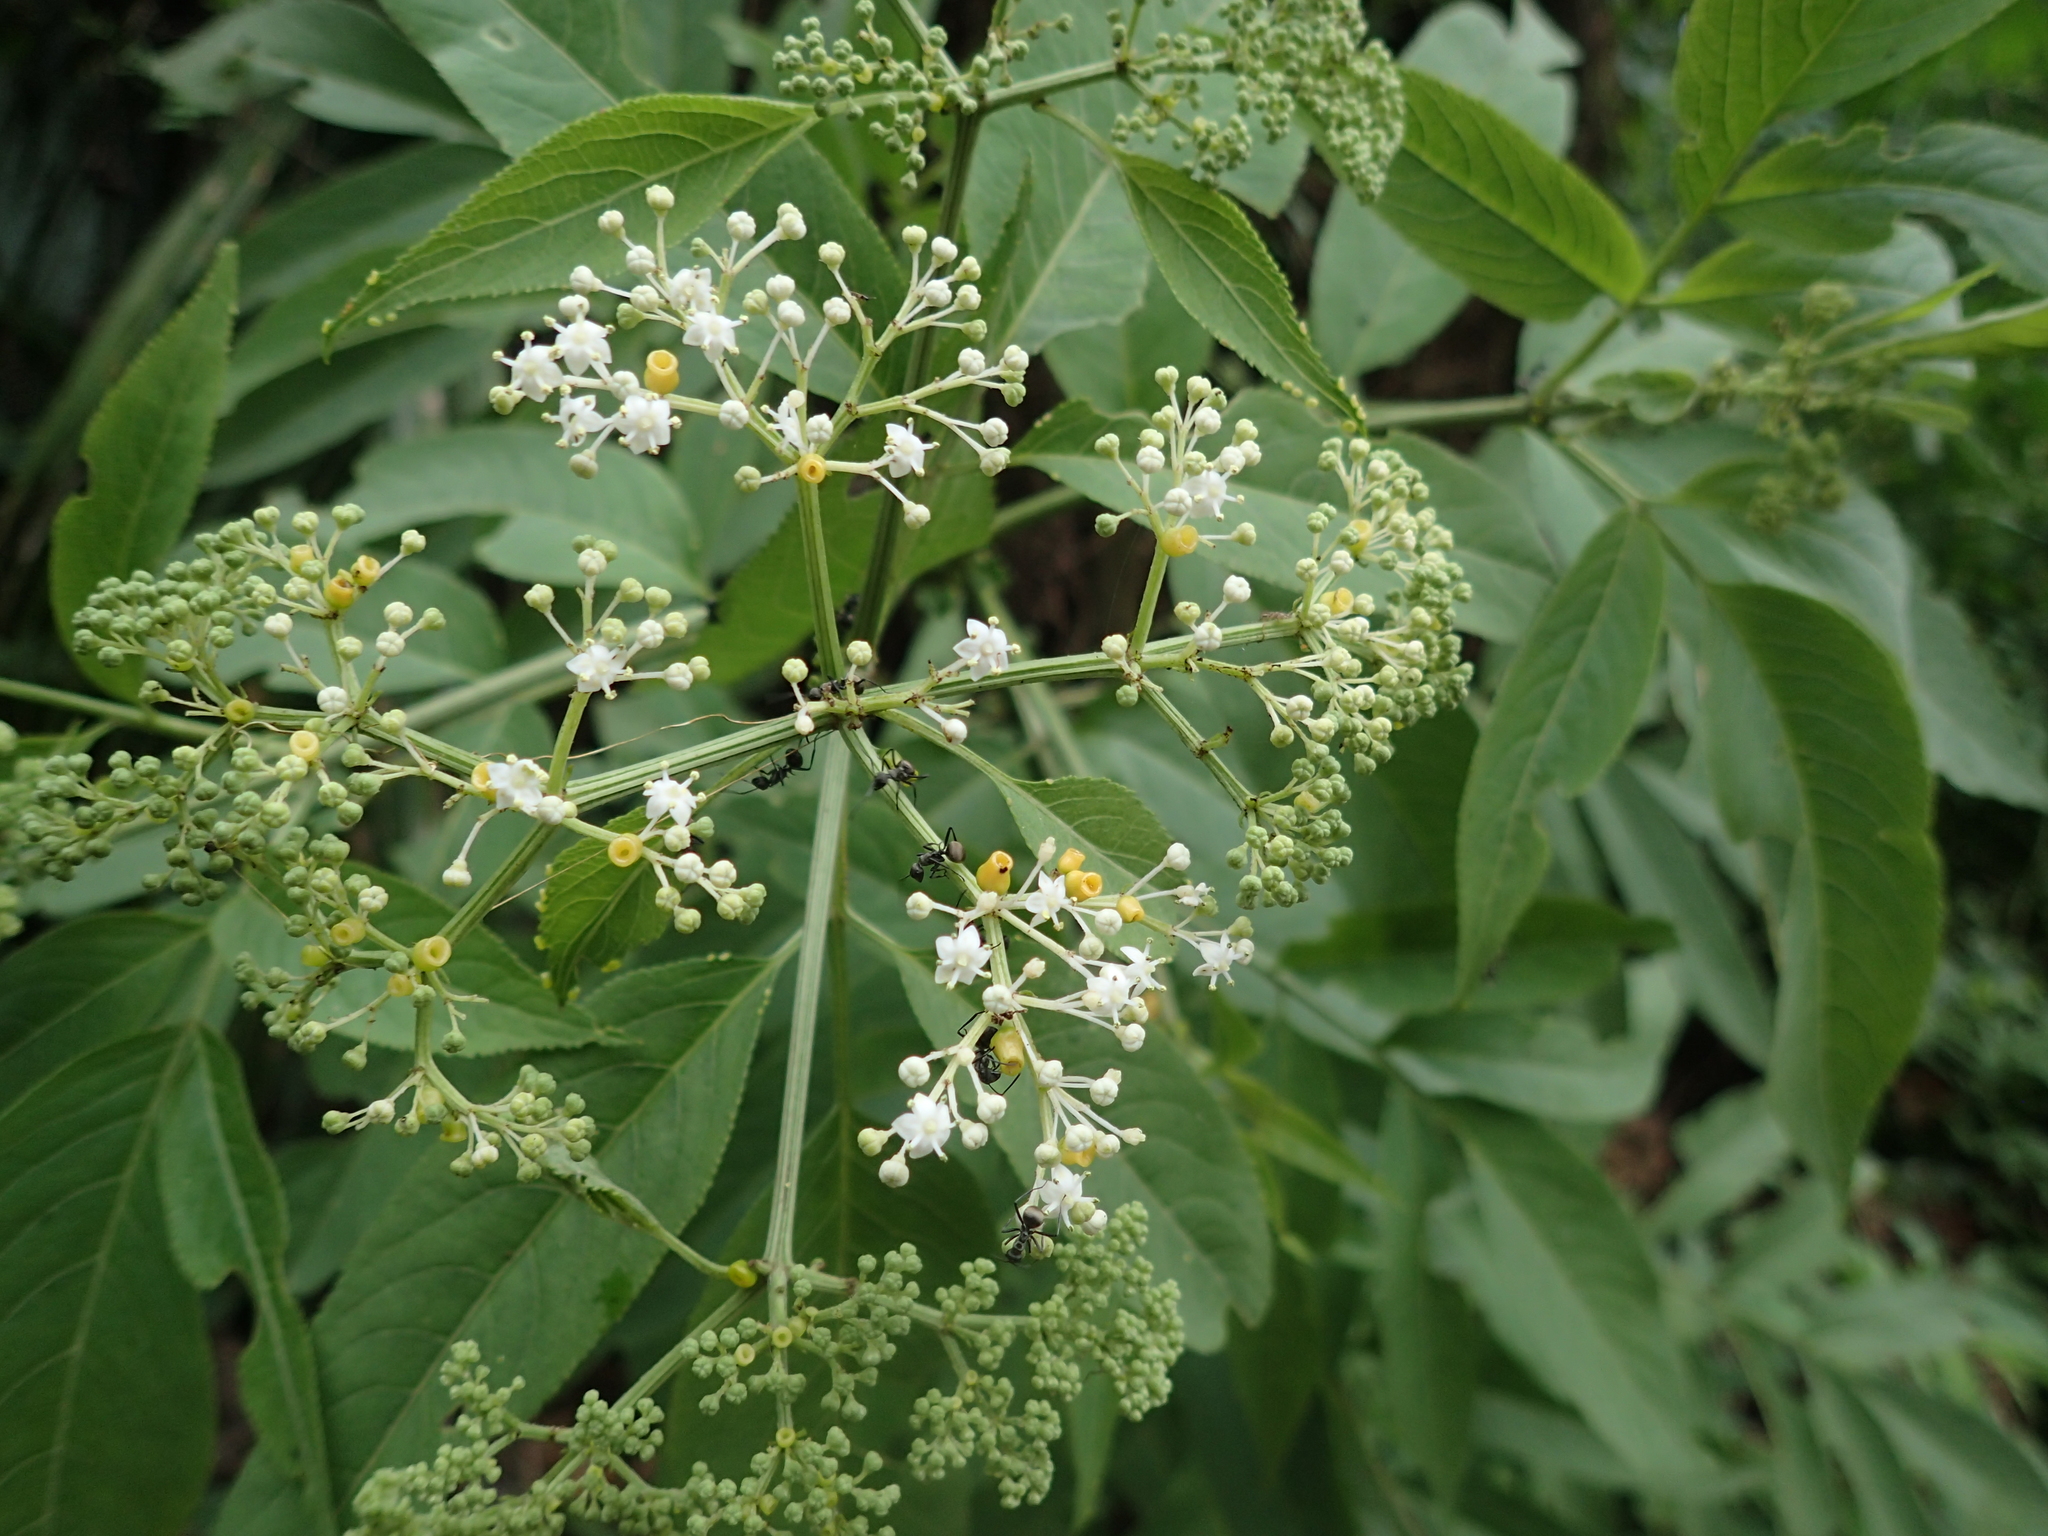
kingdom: Plantae
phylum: Tracheophyta
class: Magnoliopsida
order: Dipsacales
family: Viburnaceae
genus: Sambucus
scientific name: Sambucus javanica
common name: Chinese elder
